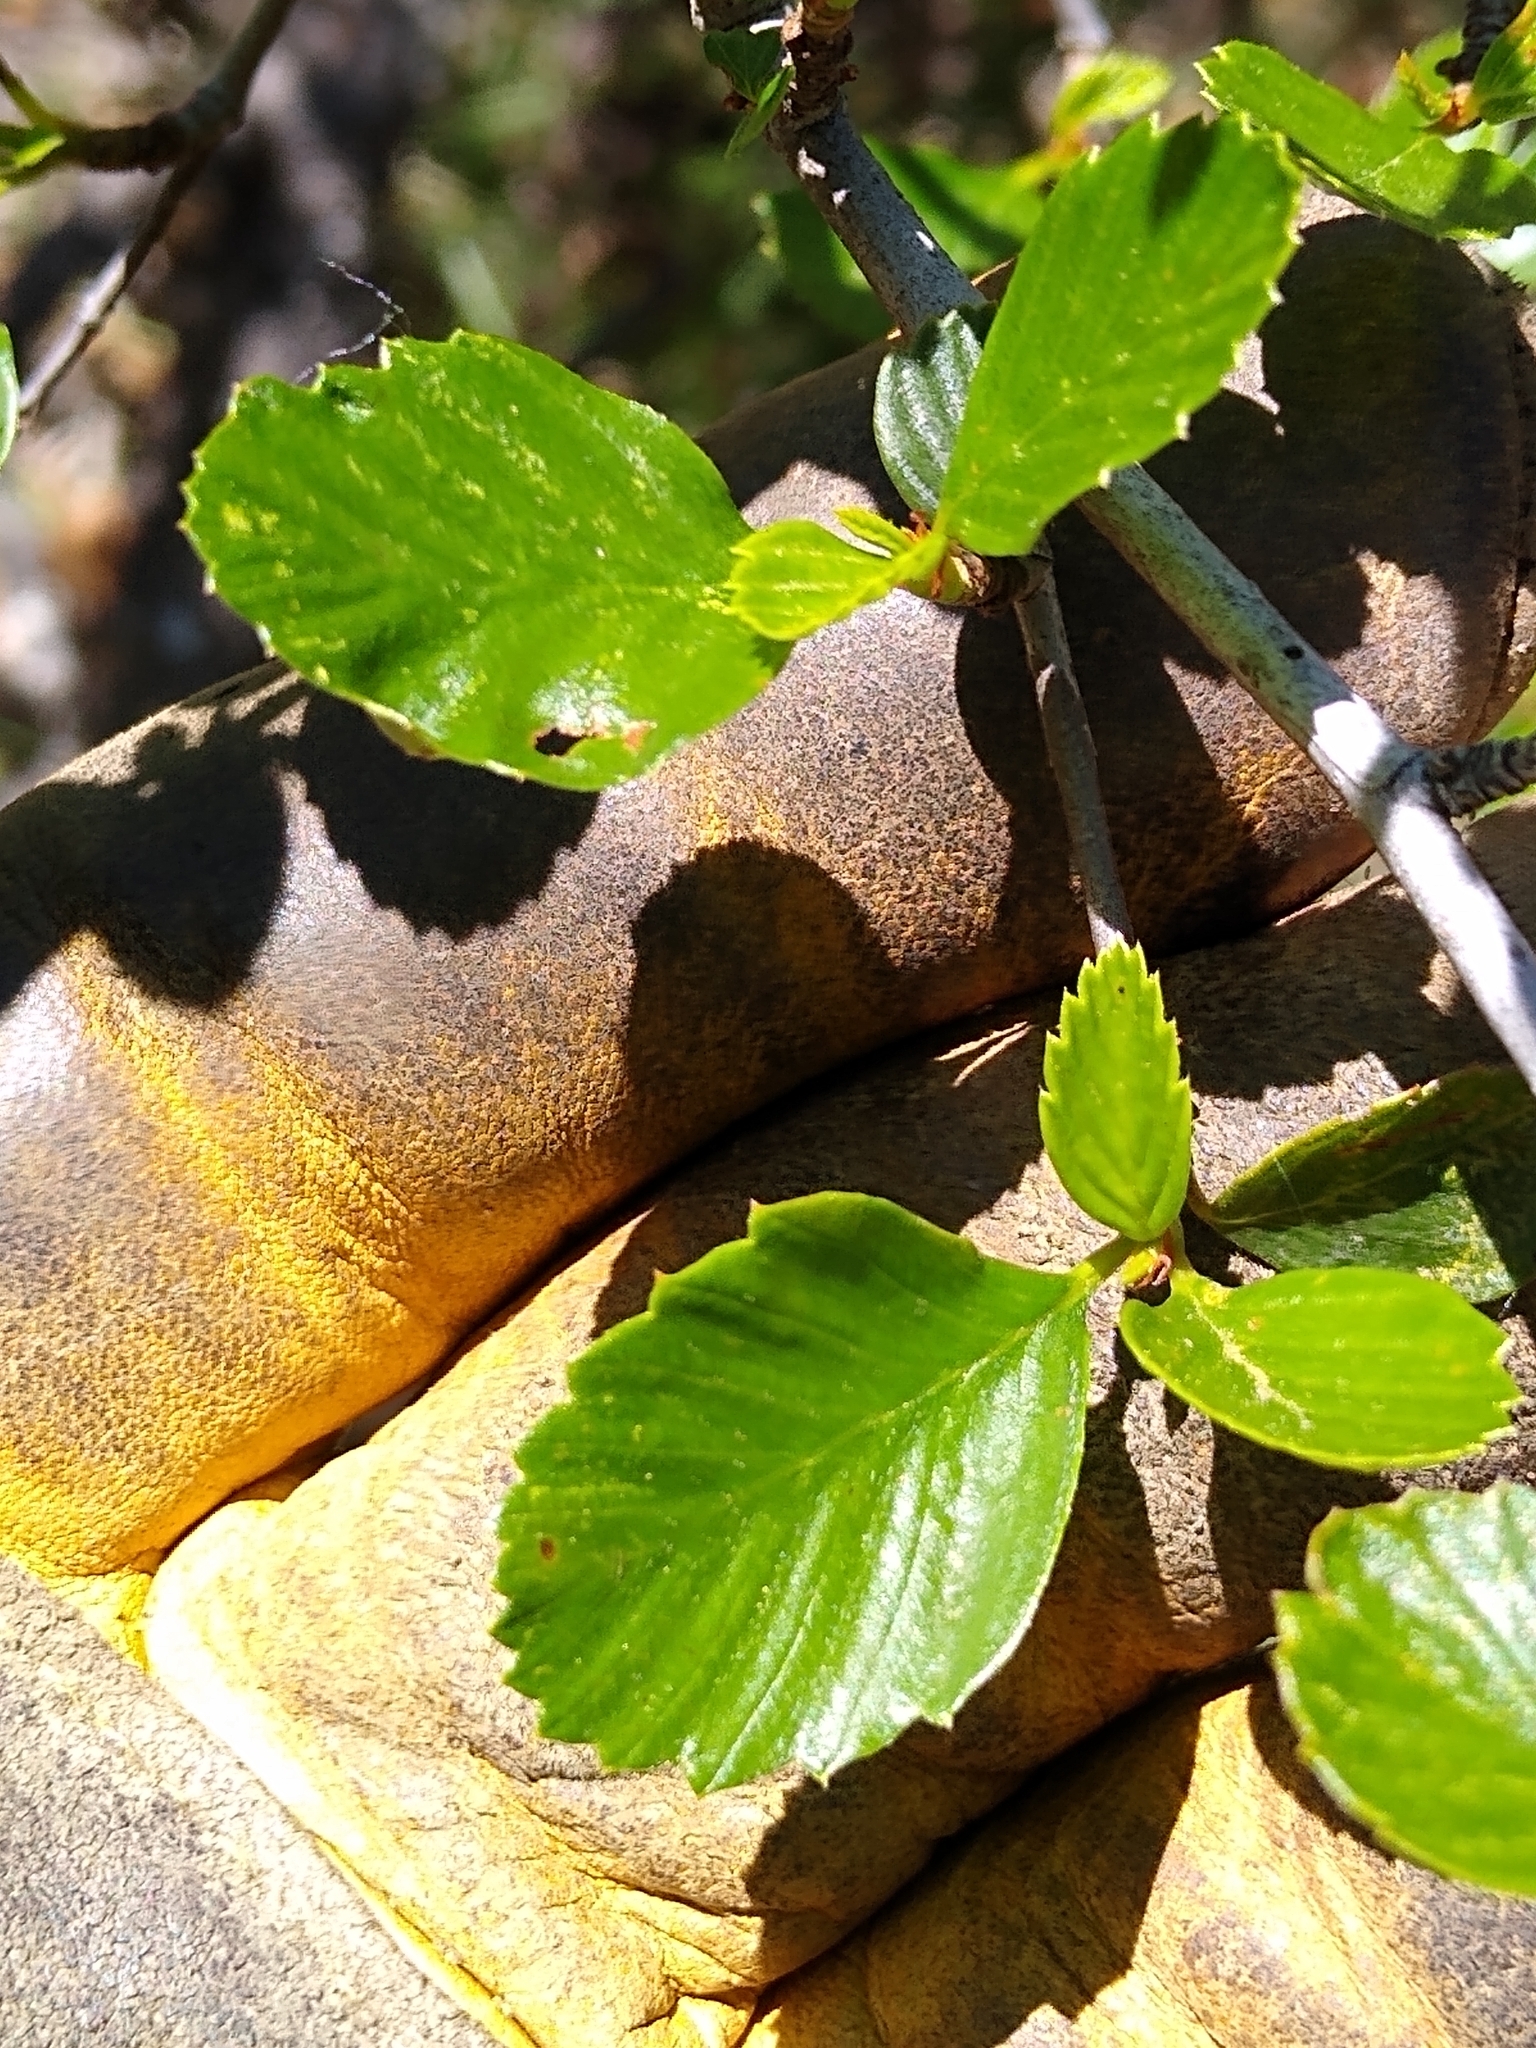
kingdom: Plantae
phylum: Tracheophyta
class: Magnoliopsida
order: Rosales
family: Rosaceae
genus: Cercocarpus
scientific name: Cercocarpus betuloides
